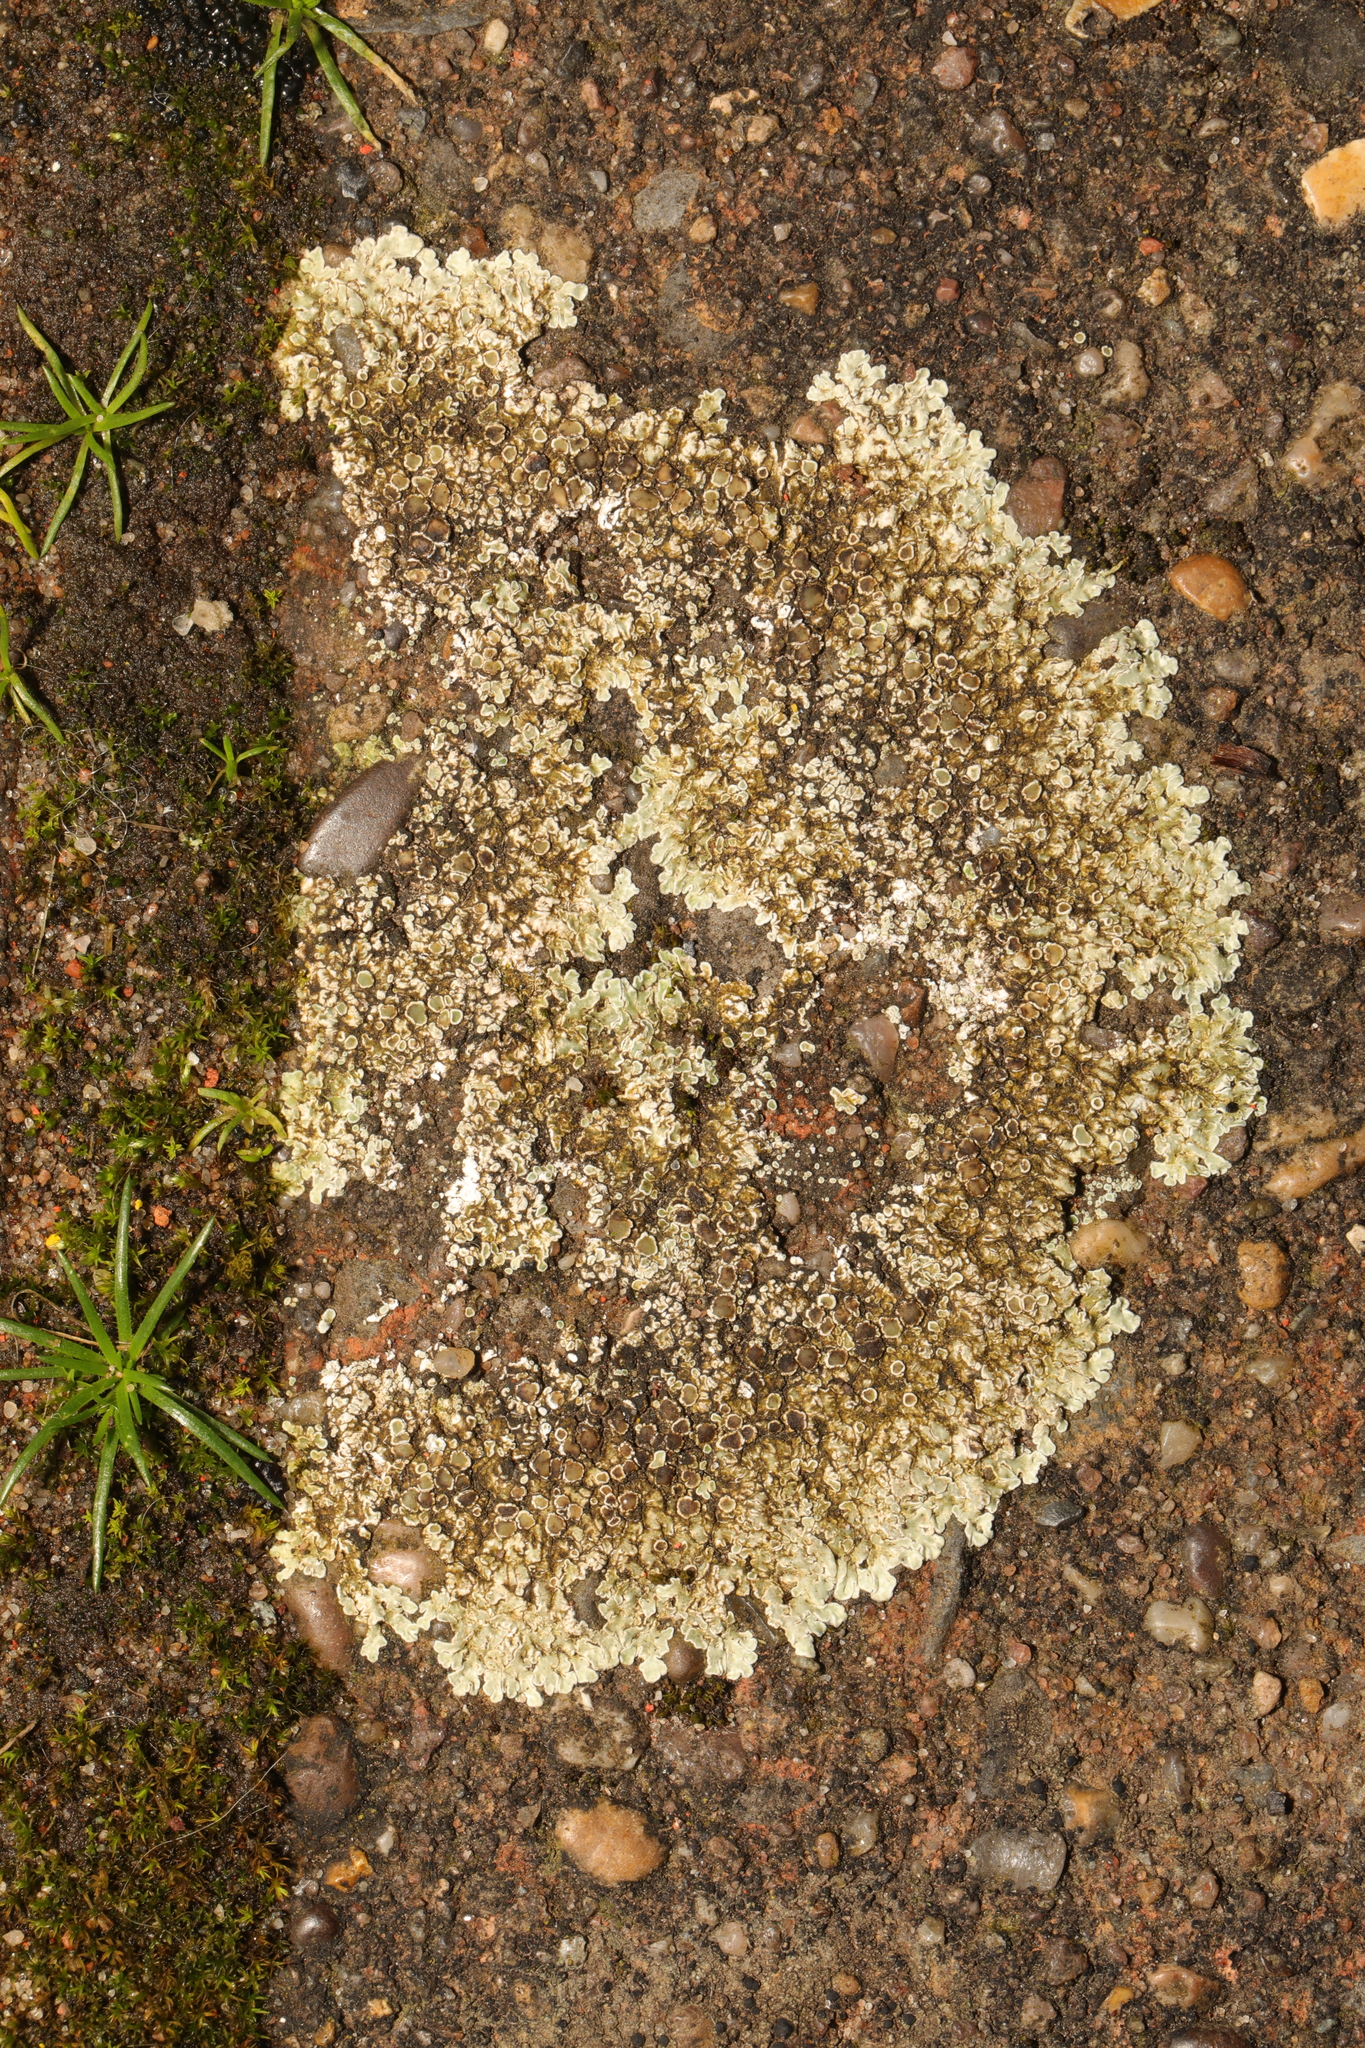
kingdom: Fungi
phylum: Ascomycota
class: Lecanoromycetes
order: Lecanorales
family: Lecanoraceae
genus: Protoparmeliopsis
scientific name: Protoparmeliopsis muralis
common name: Stonewall rim lichen
